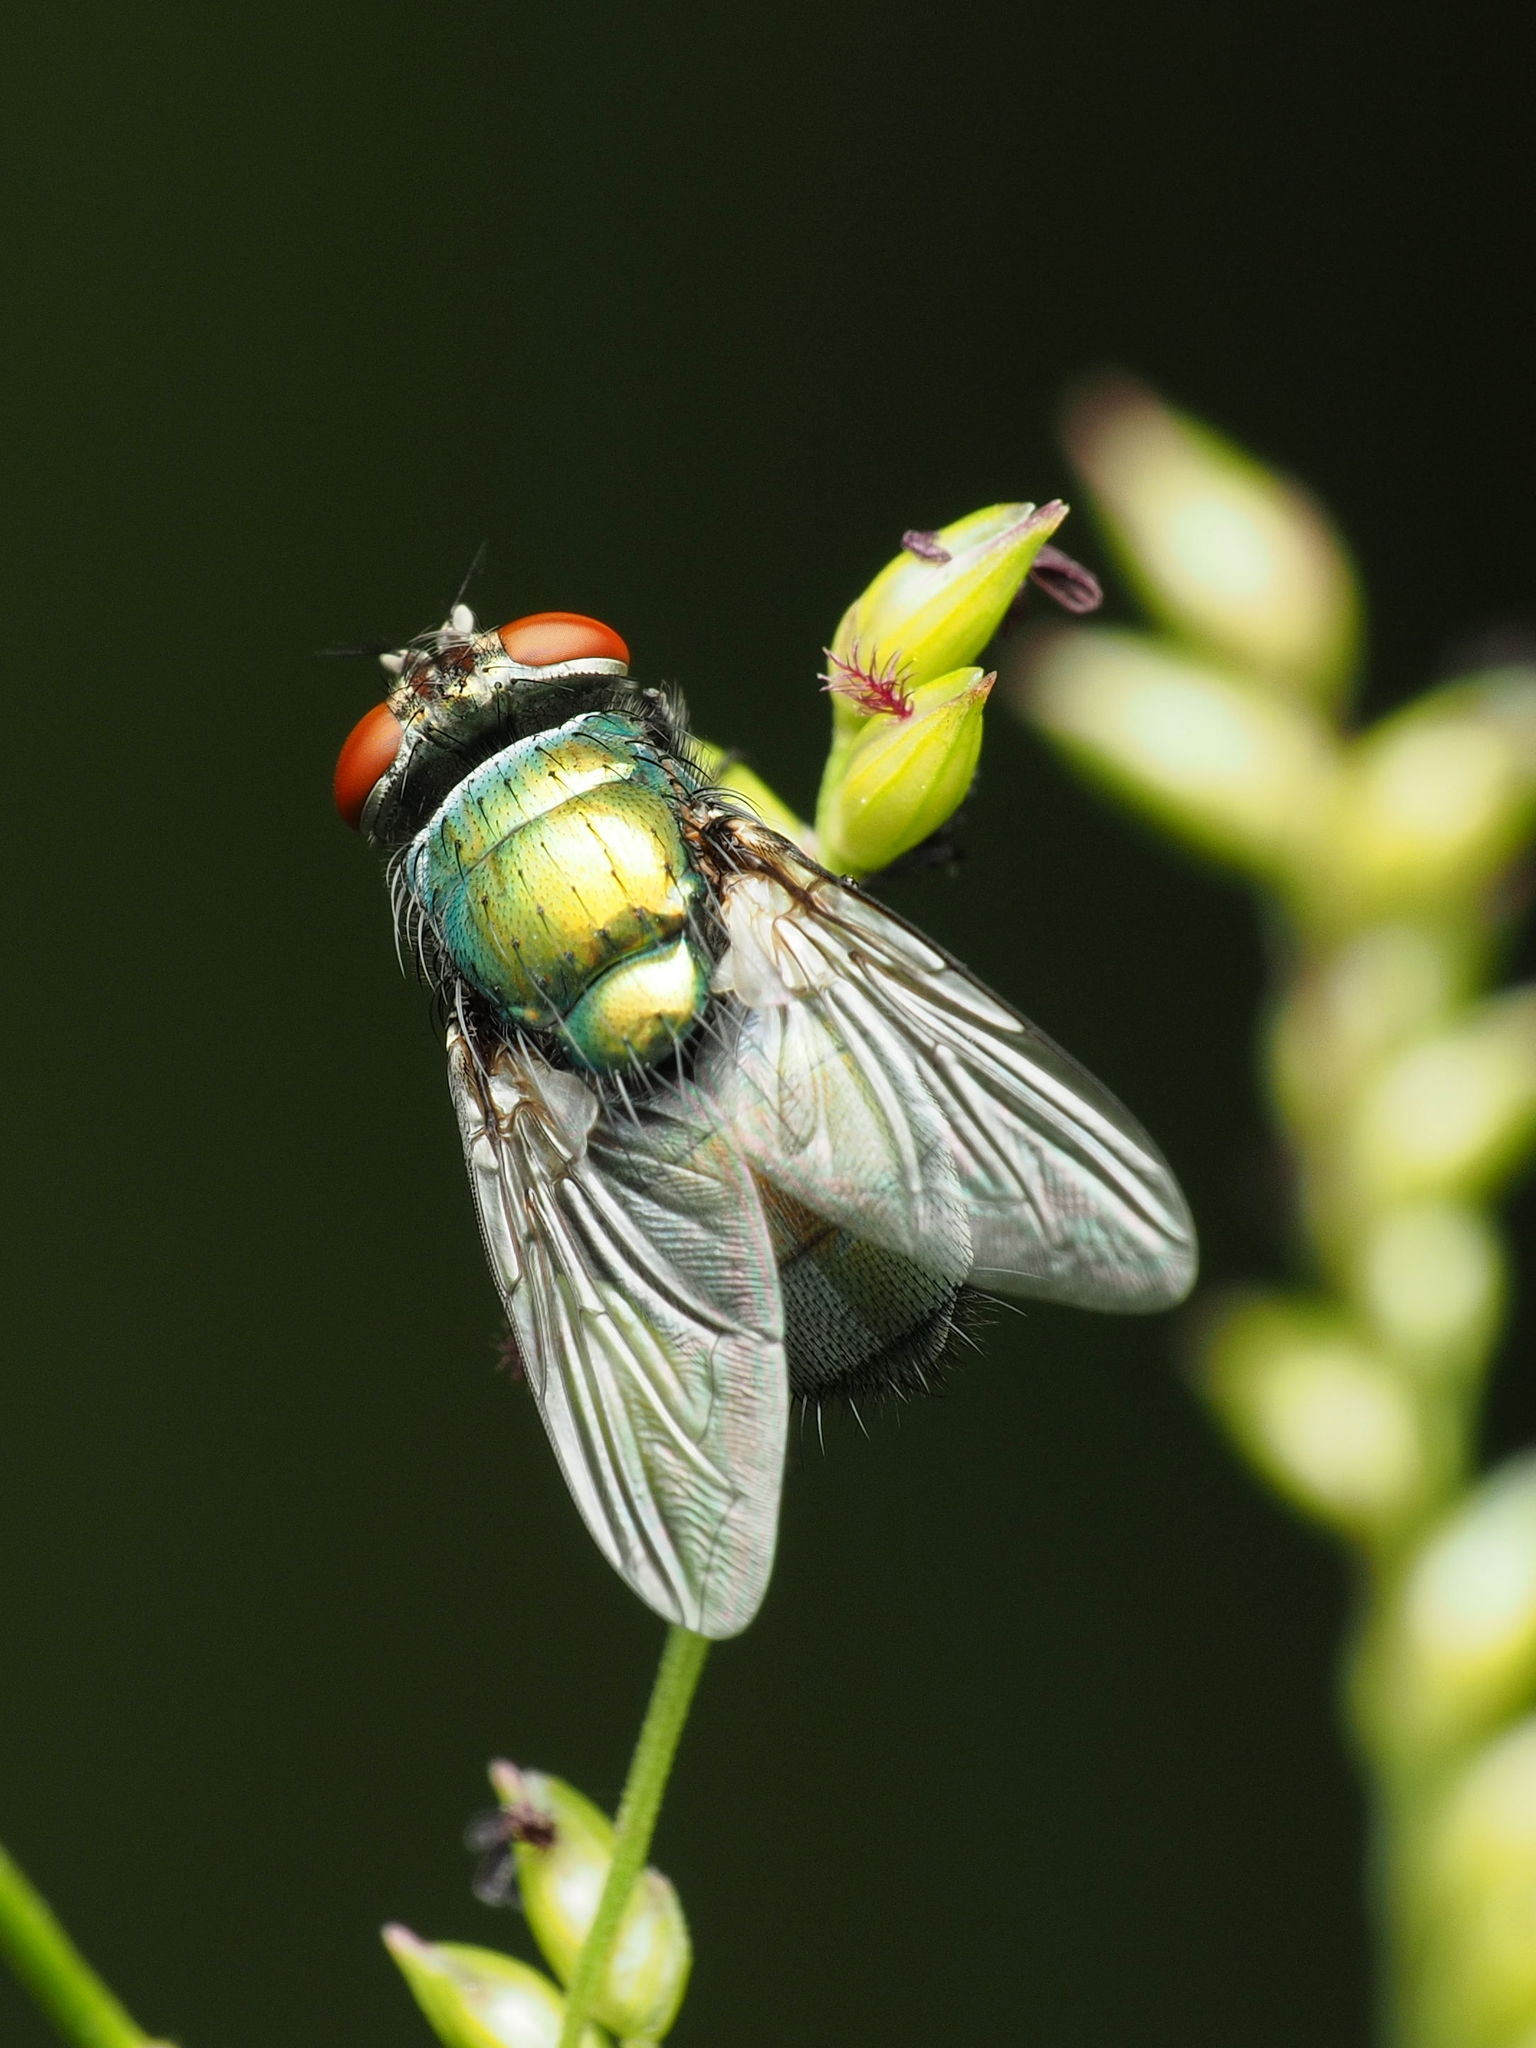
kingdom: Animalia
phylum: Arthropoda
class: Insecta
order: Diptera
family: Calliphoridae
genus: Lucilia
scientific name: Lucilia
